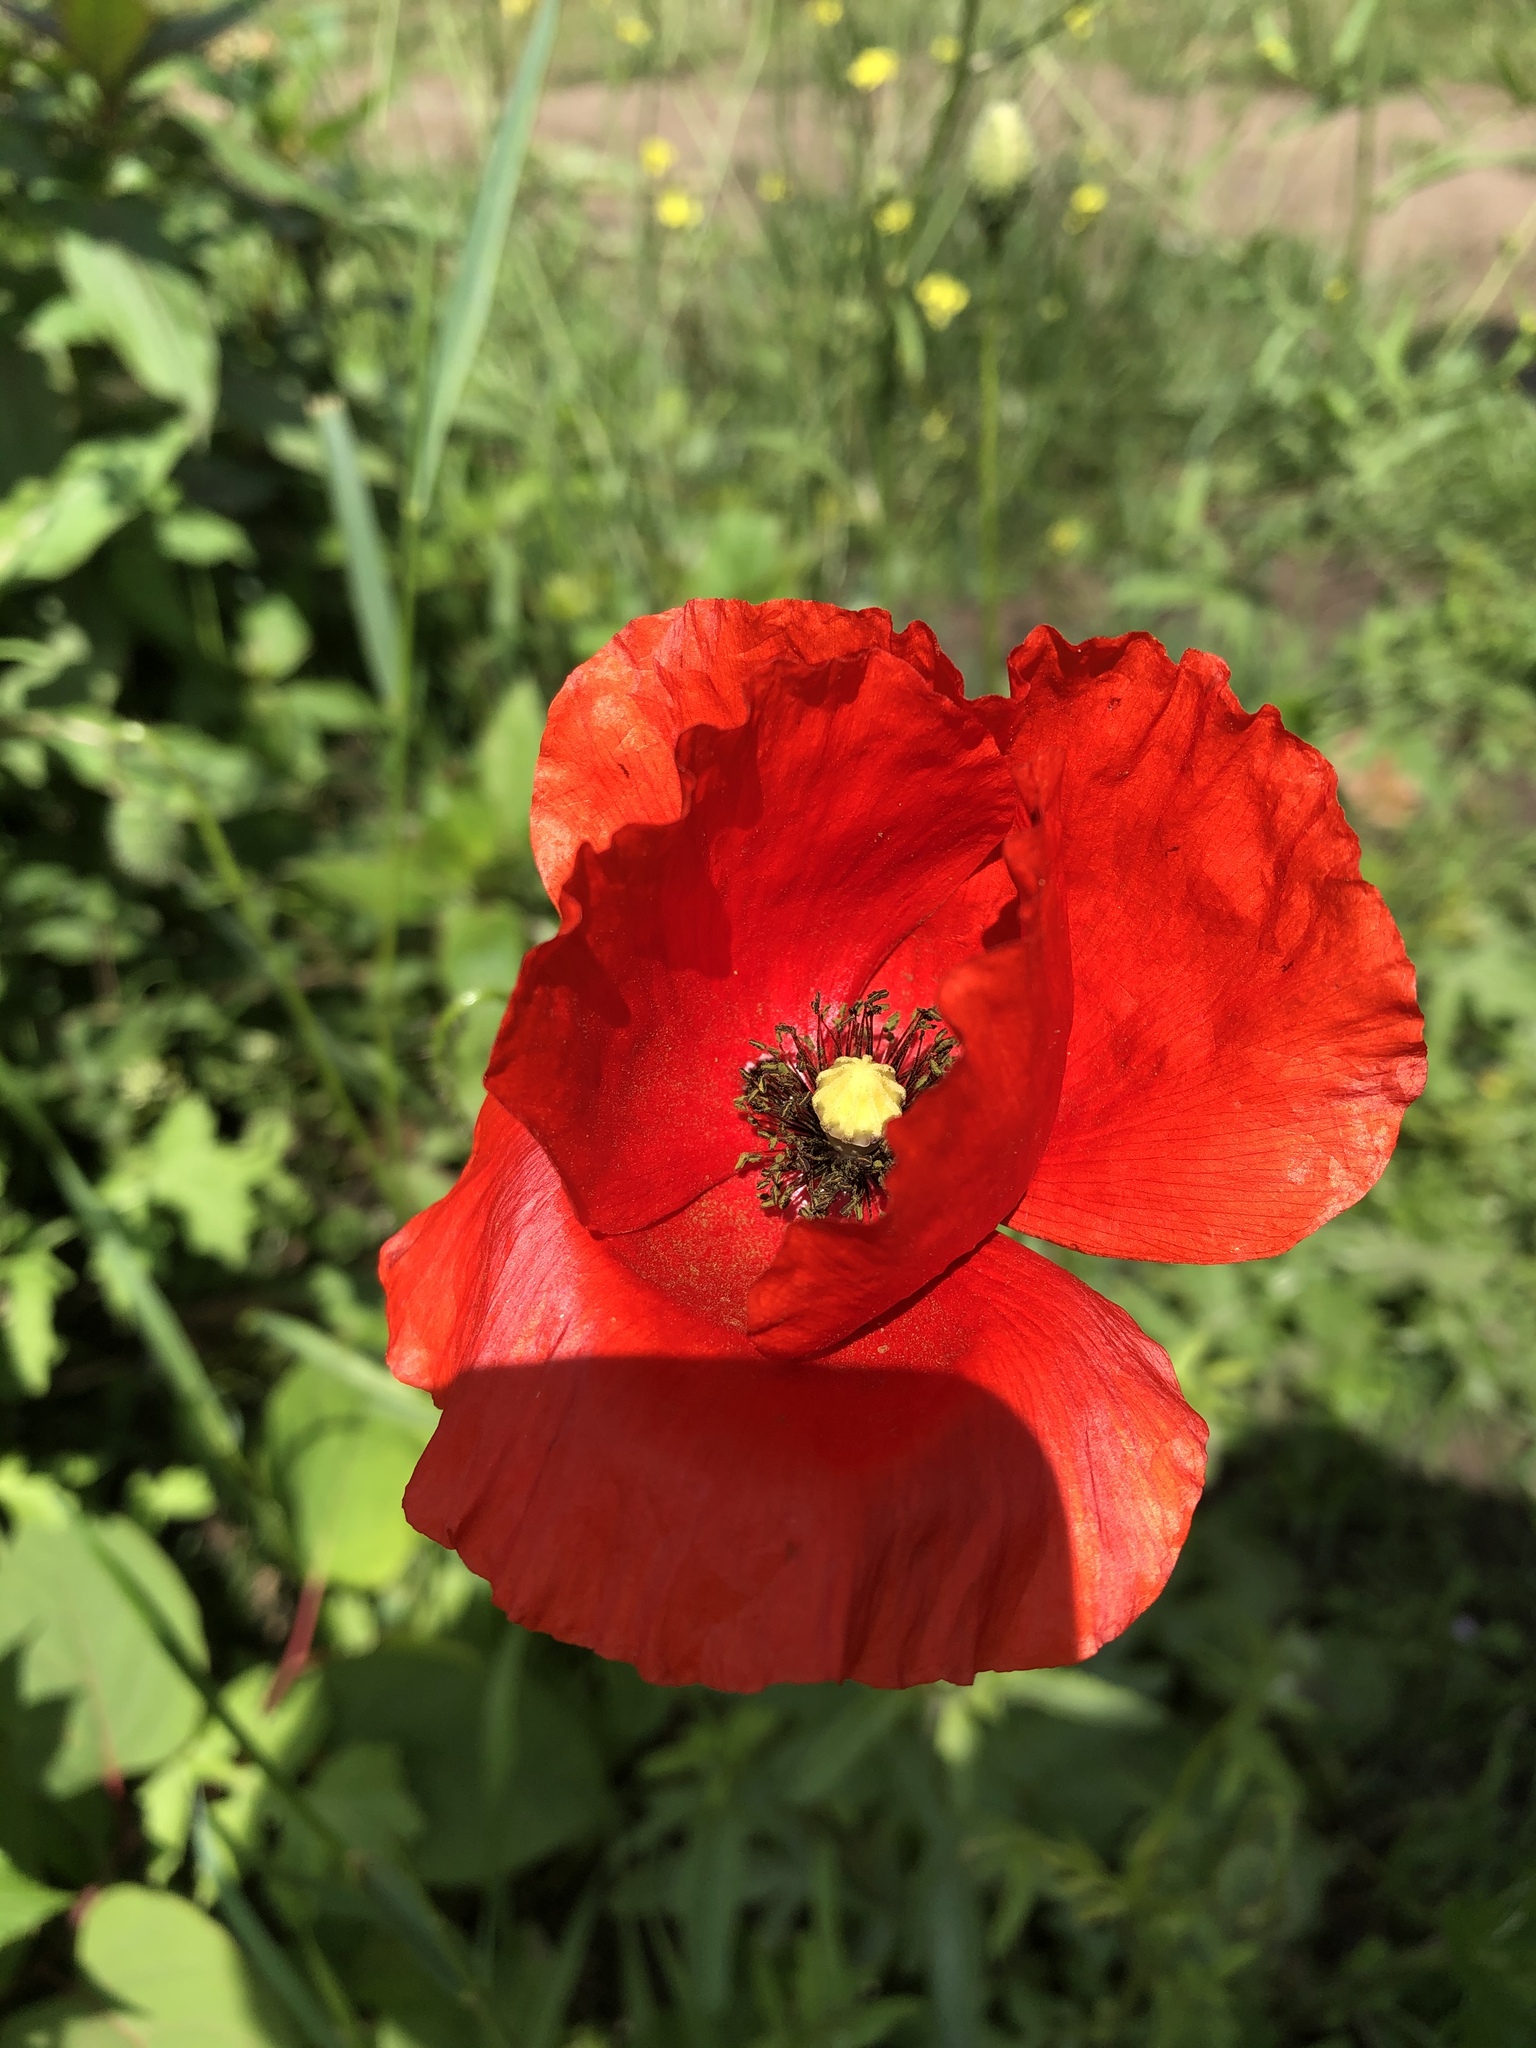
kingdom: Plantae
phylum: Tracheophyta
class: Magnoliopsida
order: Ranunculales
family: Papaveraceae
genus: Papaver
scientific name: Papaver rhoeas
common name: Corn poppy
